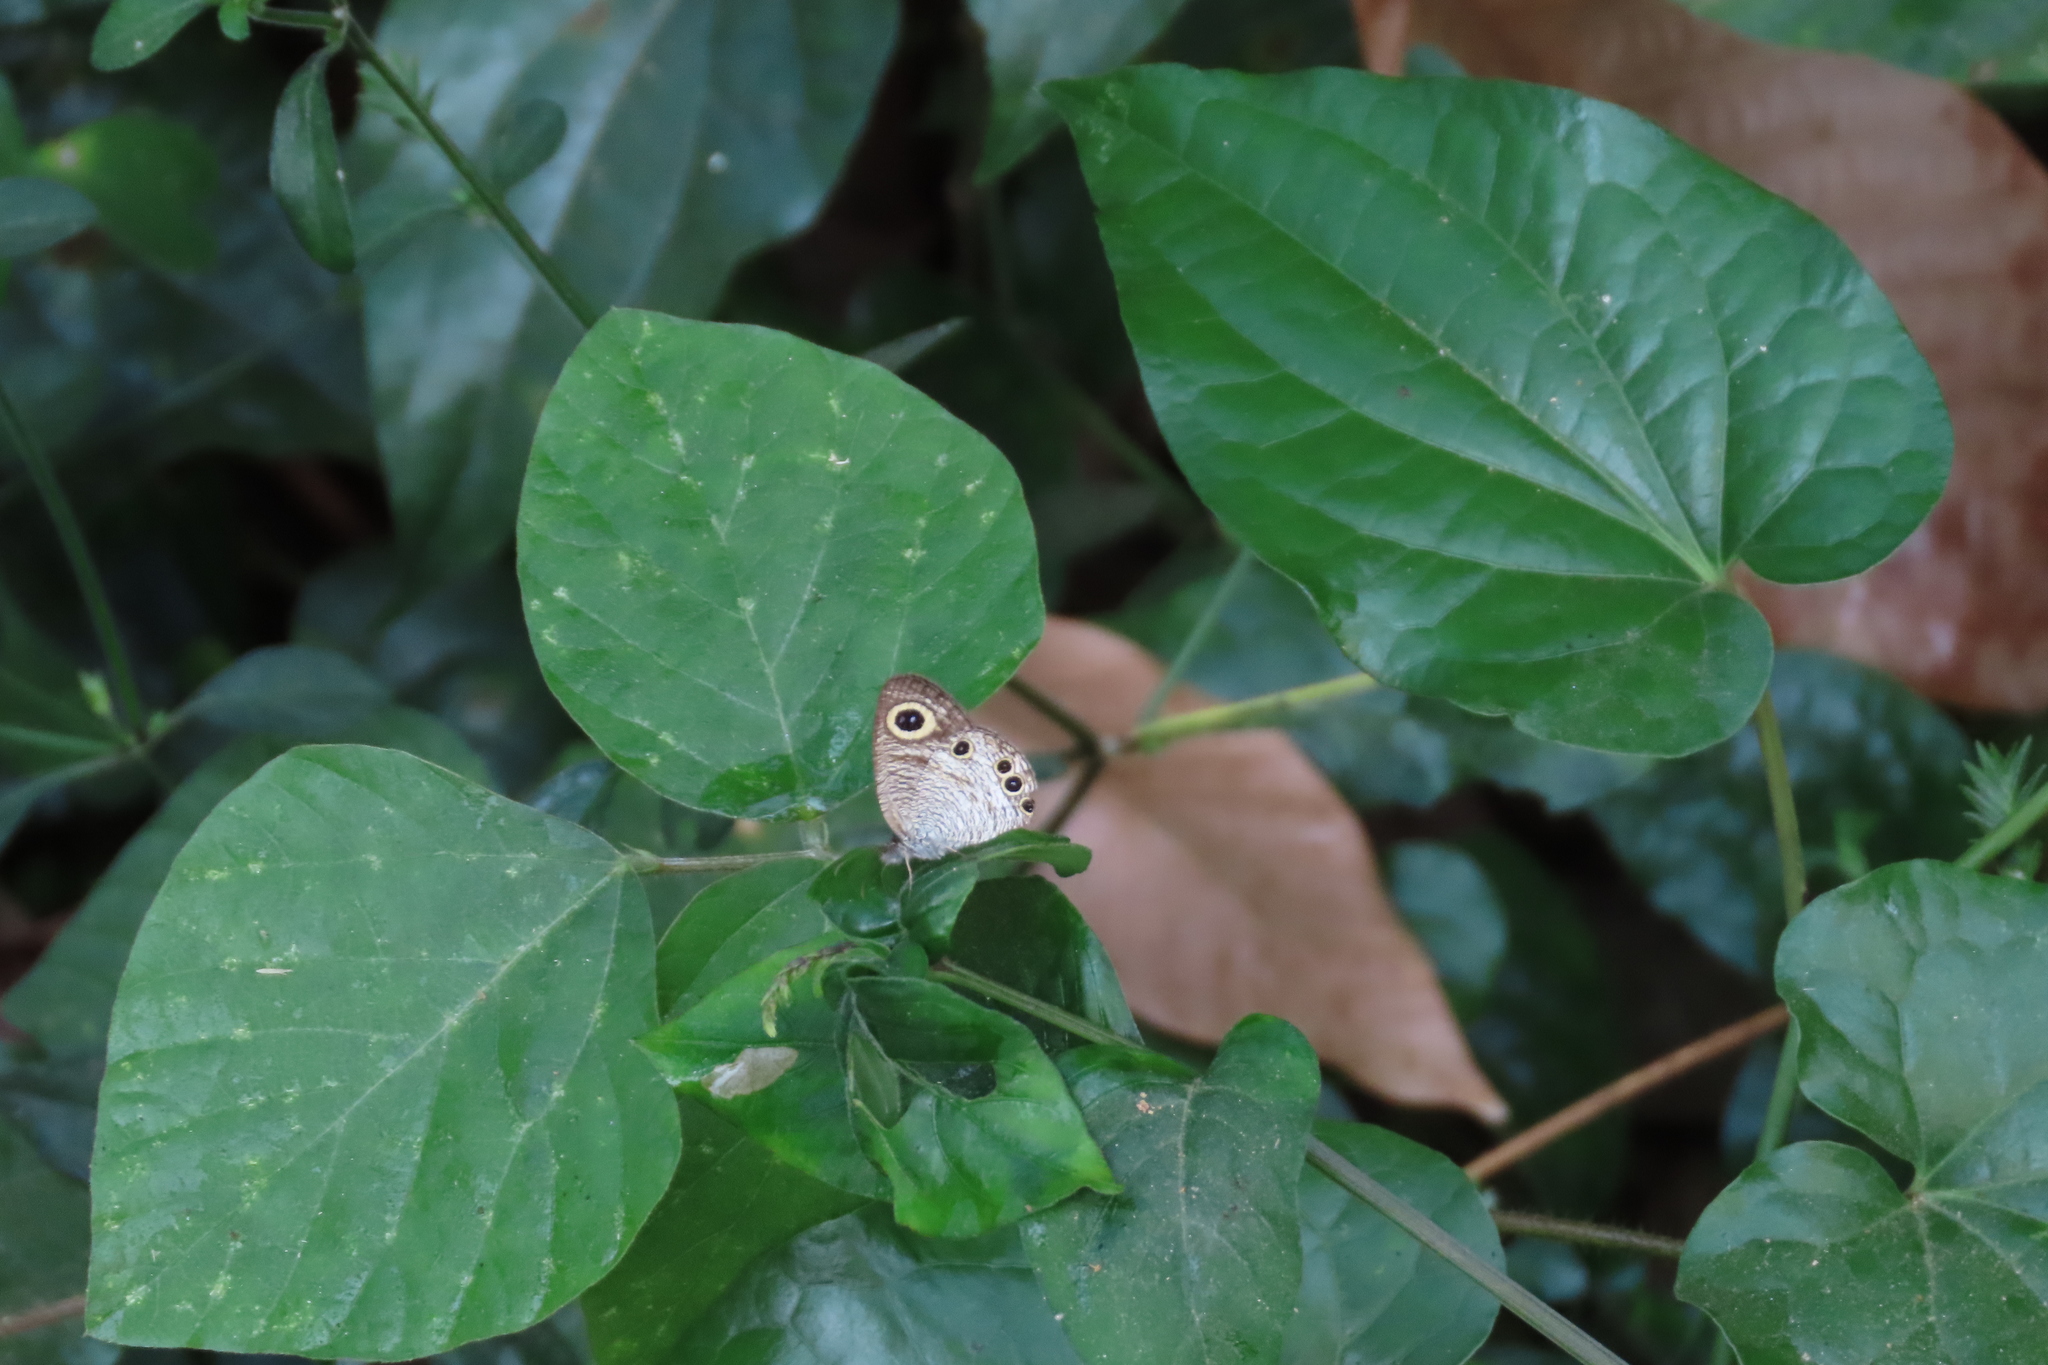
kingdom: Animalia
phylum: Arthropoda
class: Insecta
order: Lepidoptera
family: Nymphalidae
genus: Ypthima
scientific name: Ypthima huebneri
